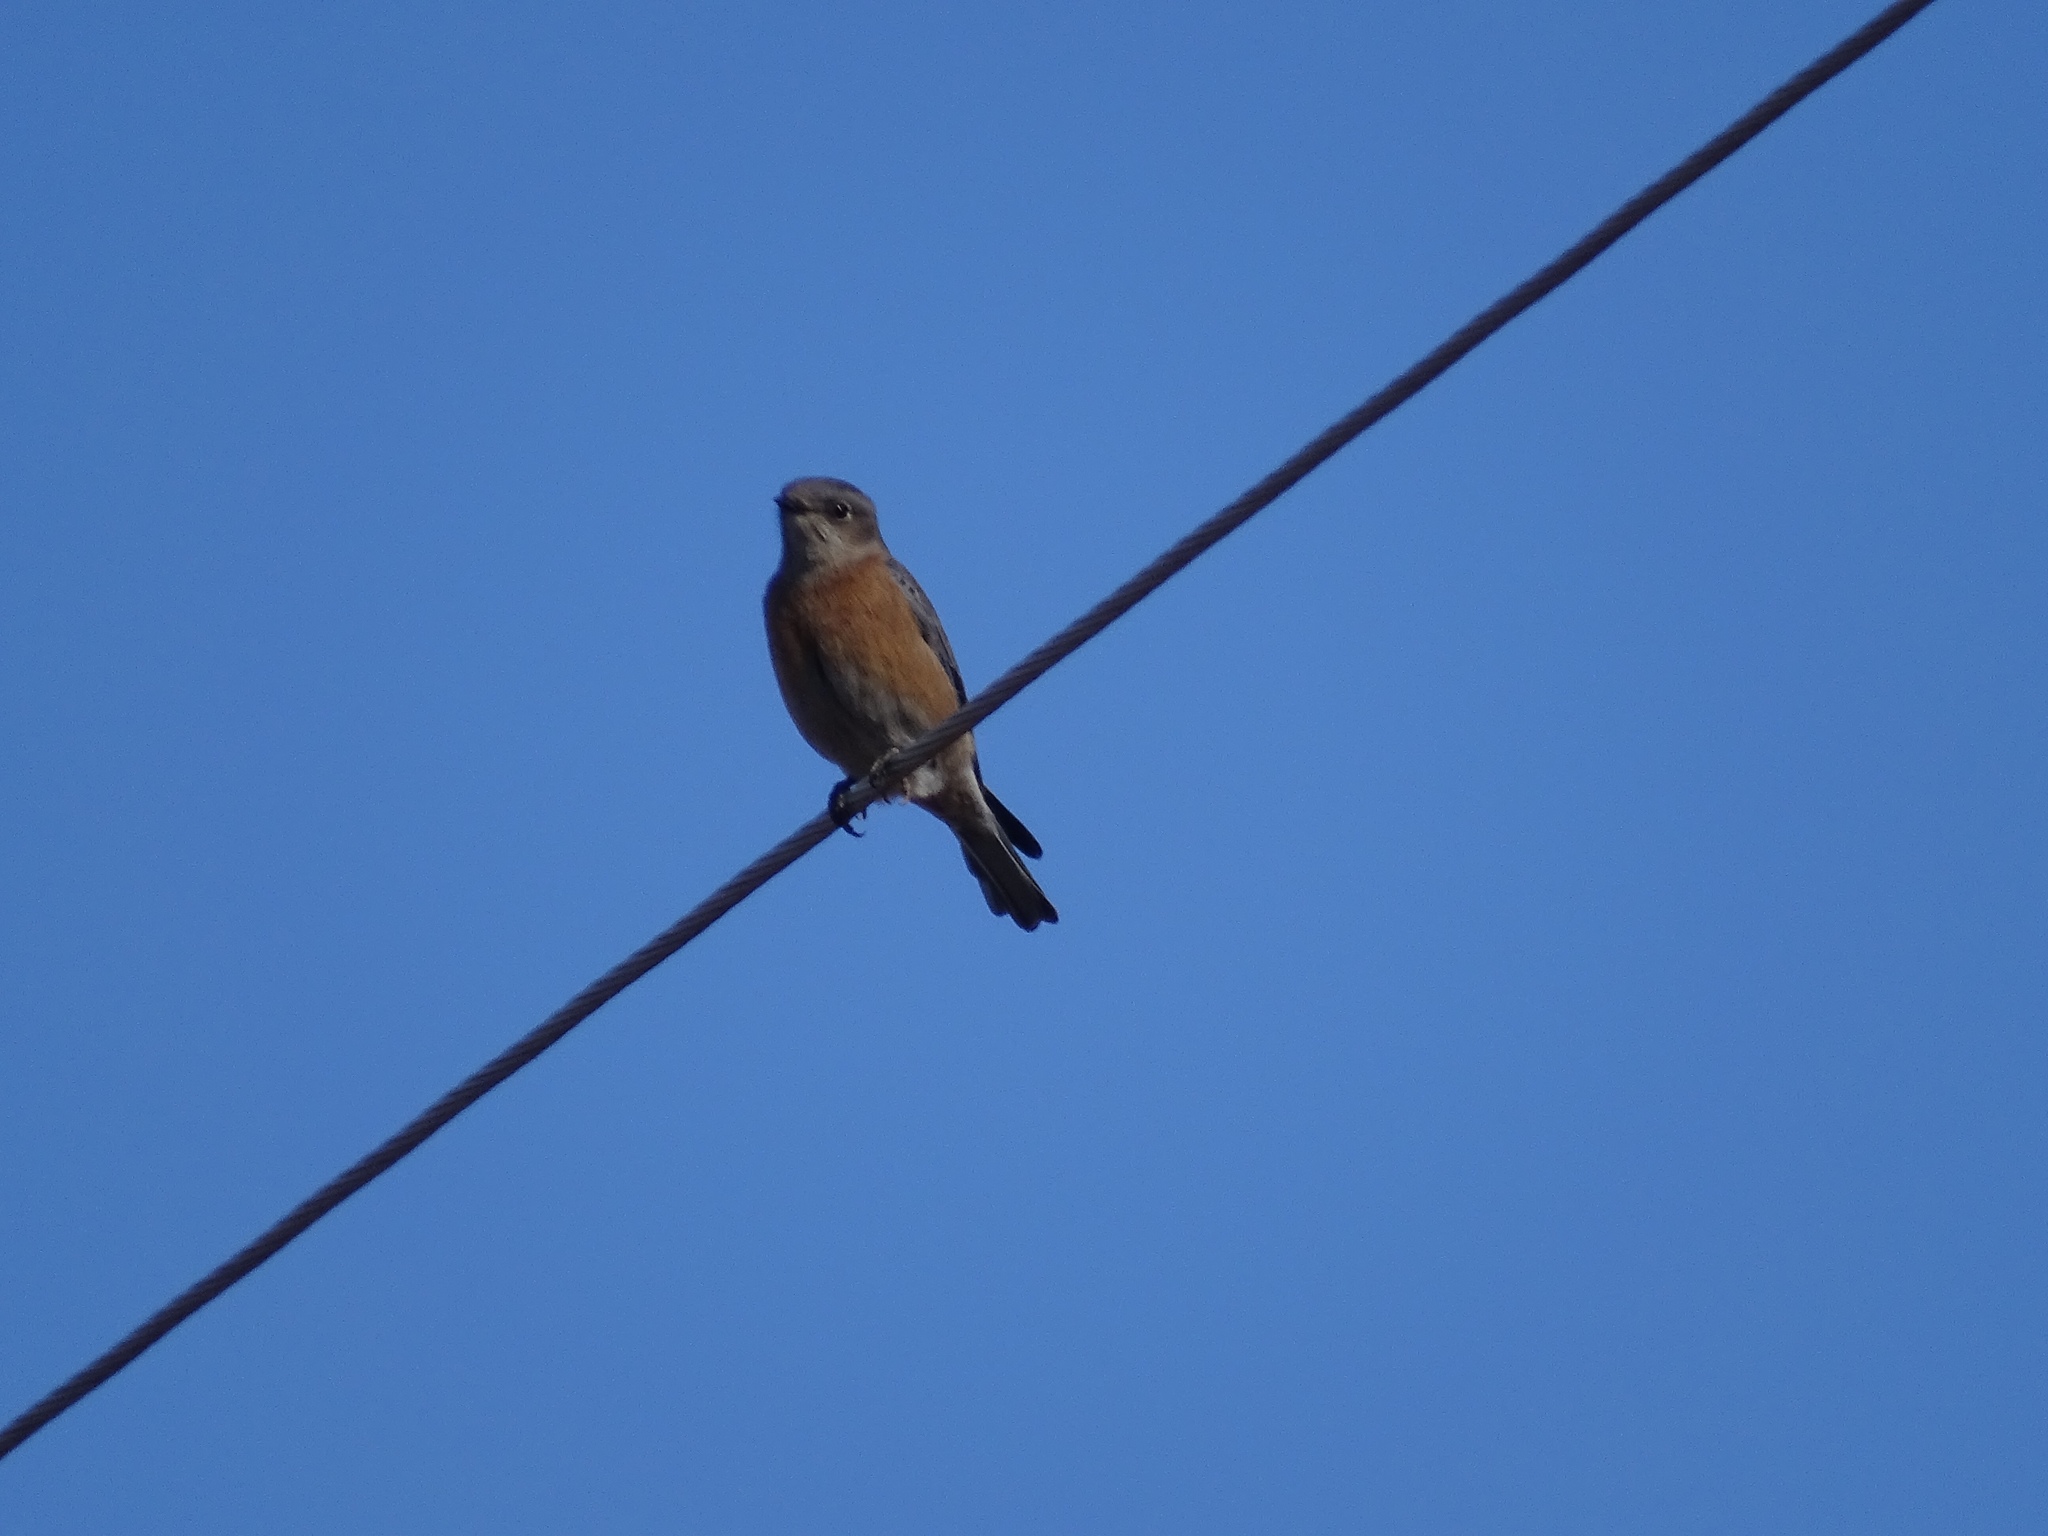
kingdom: Animalia
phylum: Chordata
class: Aves
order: Passeriformes
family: Turdidae
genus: Sialia
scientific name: Sialia mexicana
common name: Western bluebird
